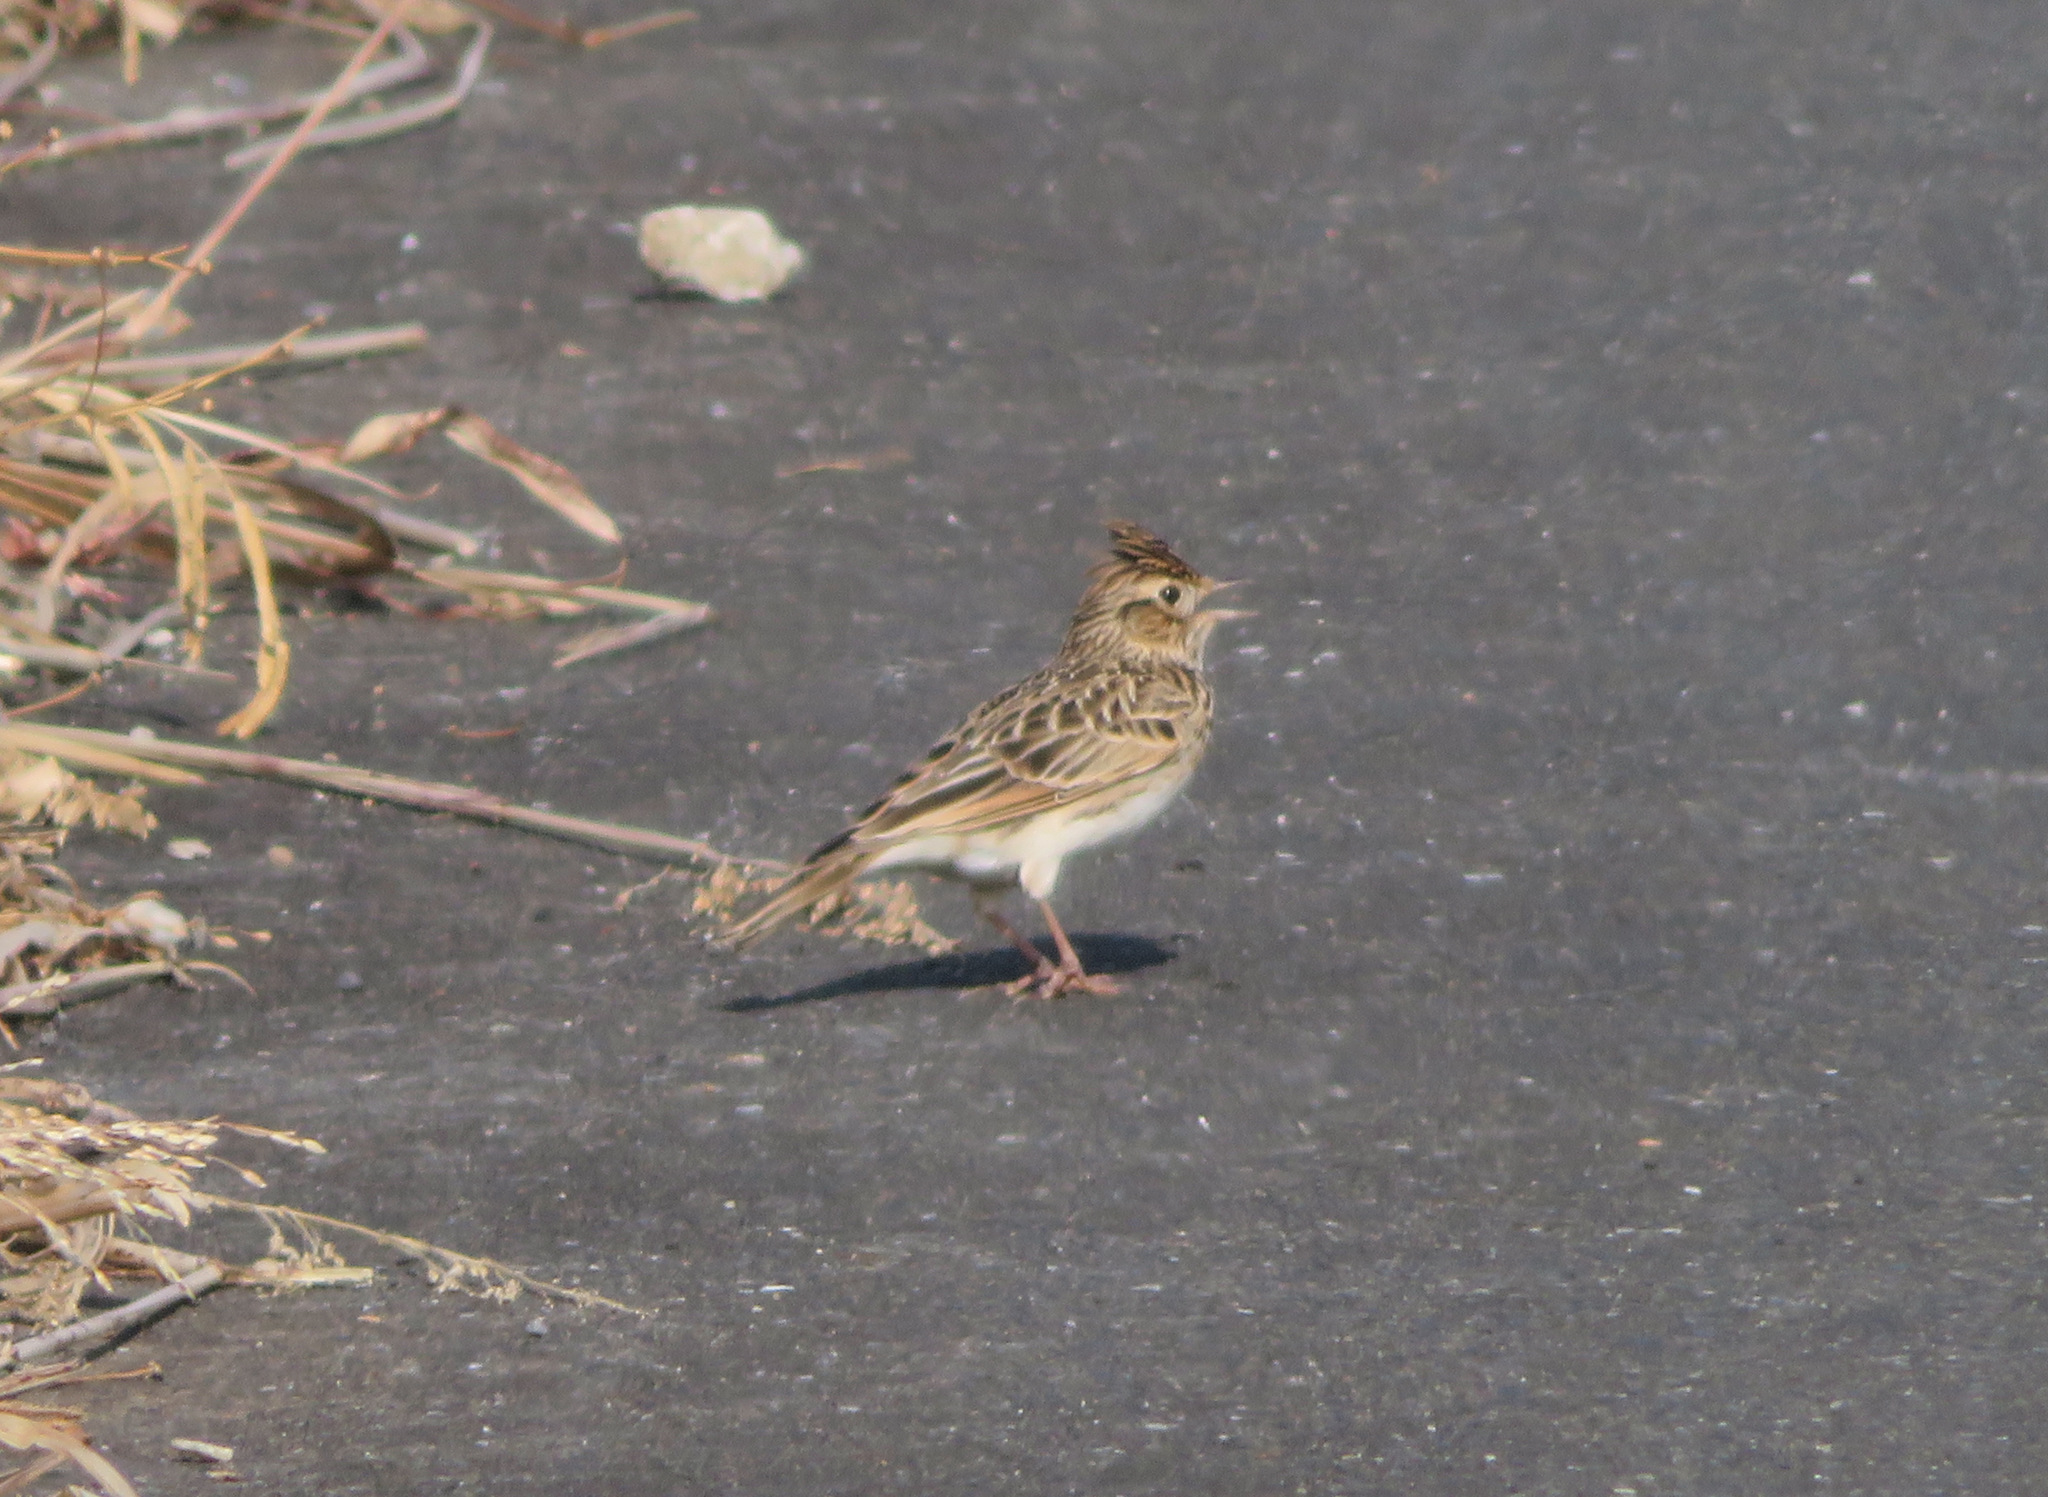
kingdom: Animalia
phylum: Chordata
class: Aves
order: Passeriformes
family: Alaudidae
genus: Alauda
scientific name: Alauda arvensis
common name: Eurasian skylark
